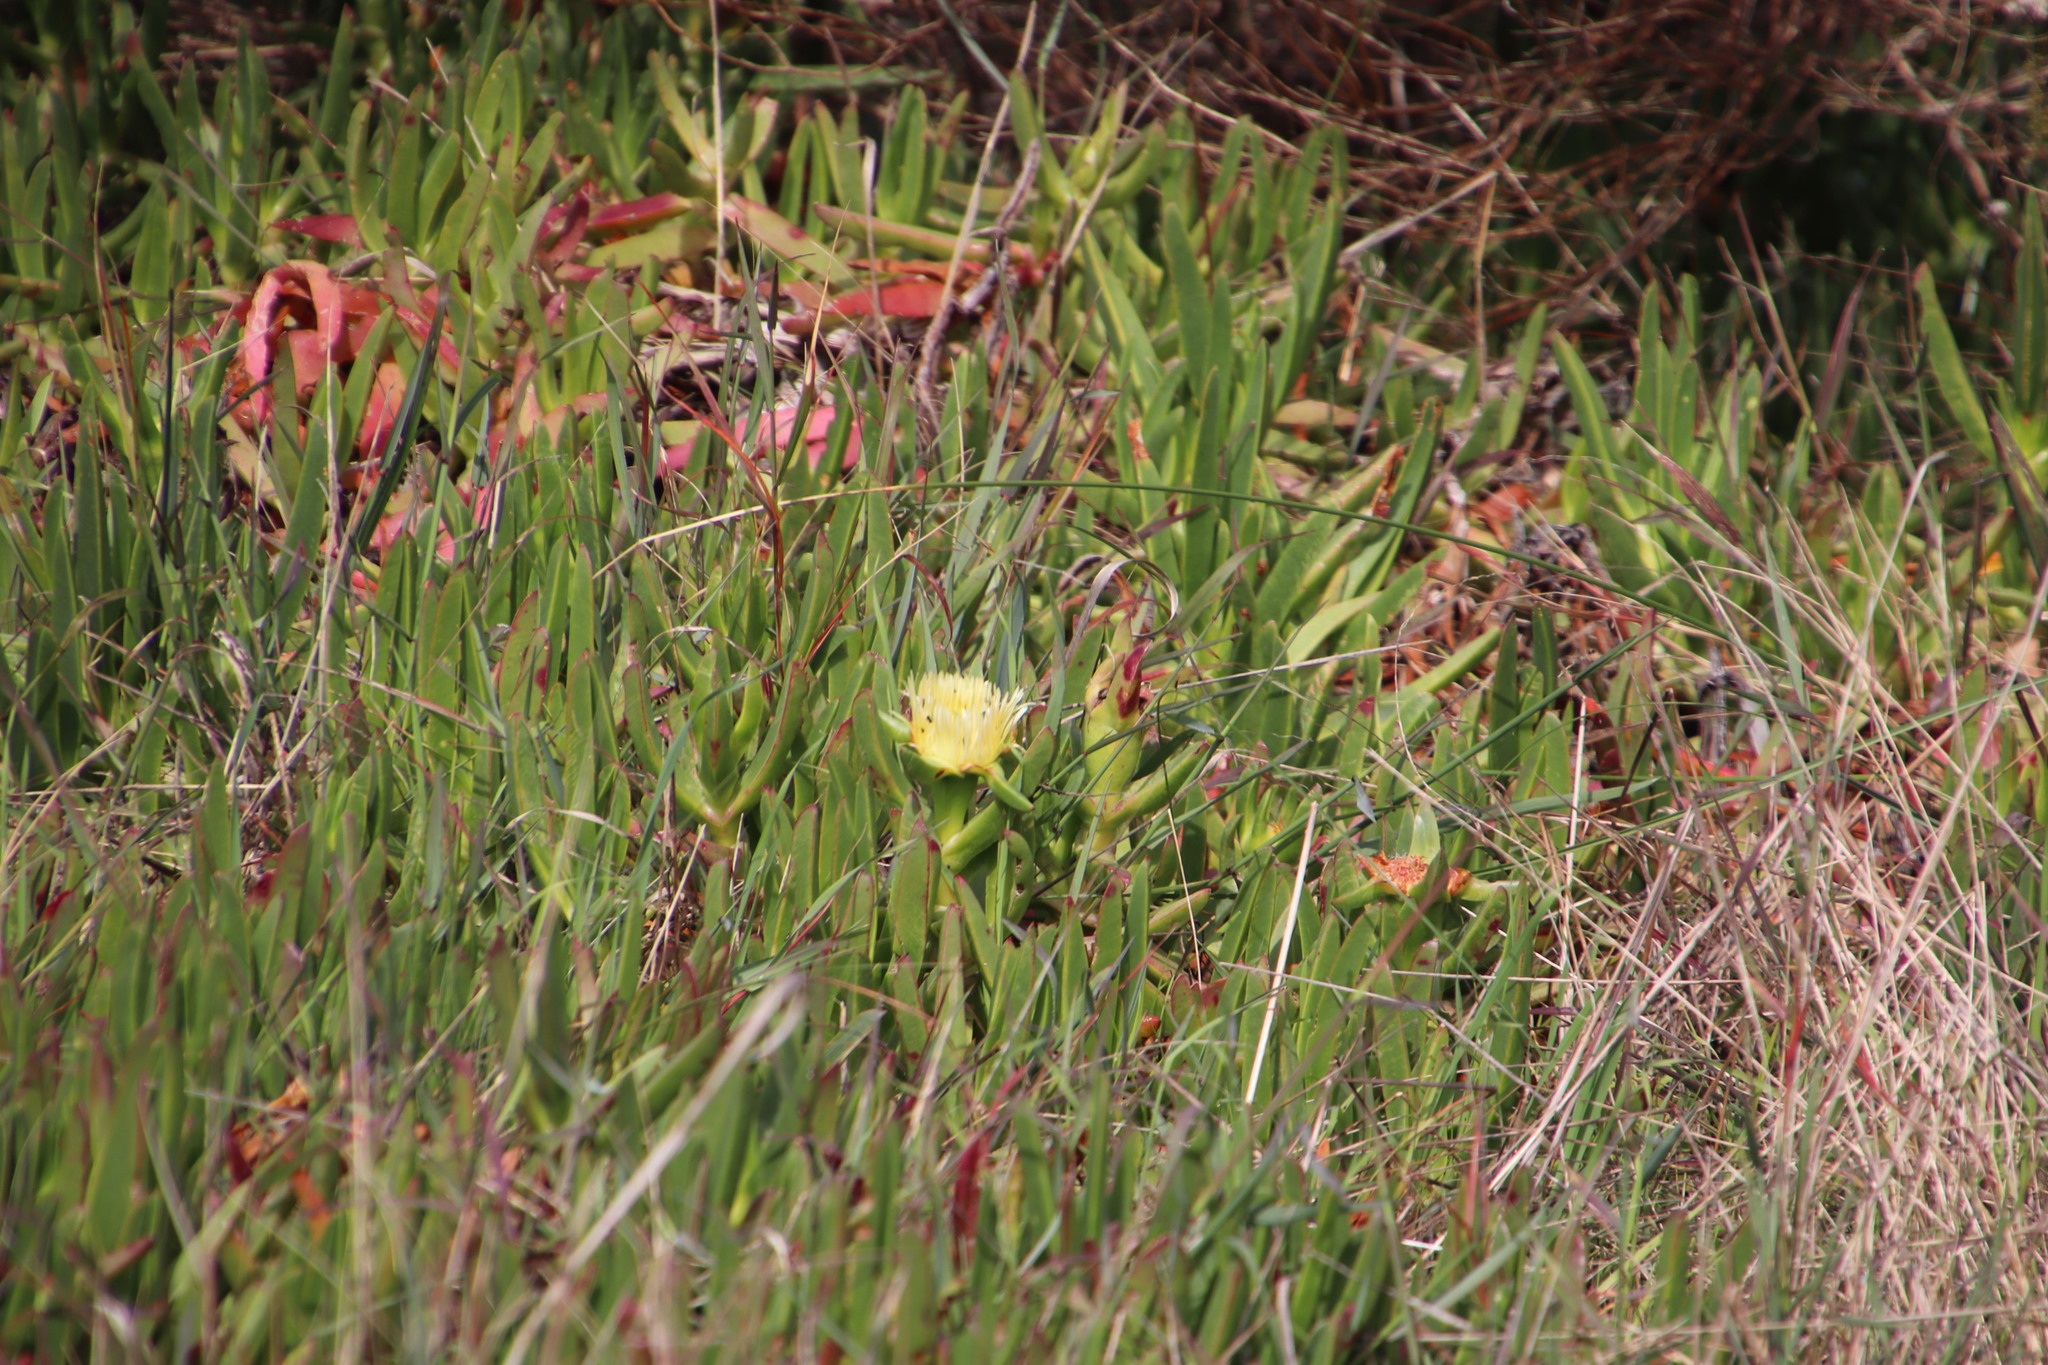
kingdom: Plantae
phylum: Tracheophyta
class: Magnoliopsida
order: Caryophyllales
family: Aizoaceae
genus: Carpobrotus
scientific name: Carpobrotus edulis
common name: Hottentot-fig
